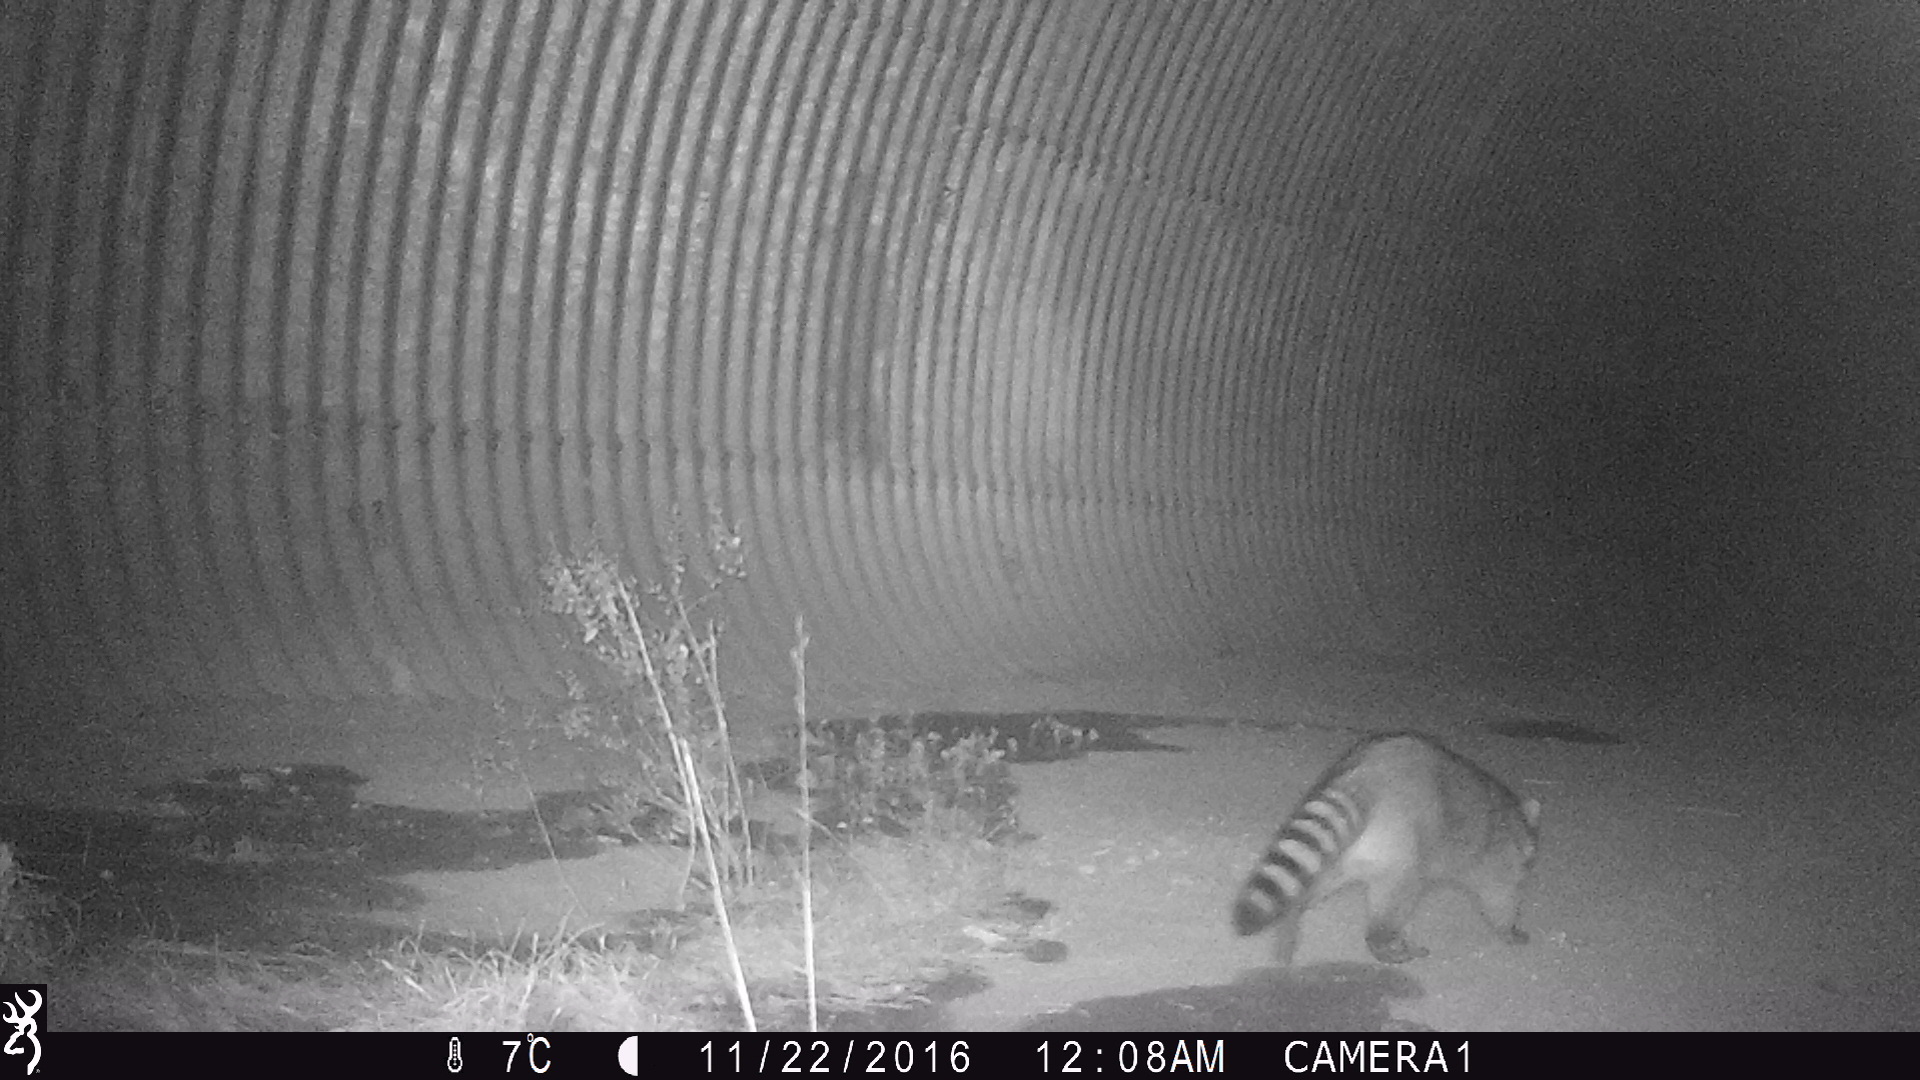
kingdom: Animalia
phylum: Chordata
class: Mammalia
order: Carnivora
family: Procyonidae
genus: Procyon
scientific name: Procyon lotor
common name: Raccoon
